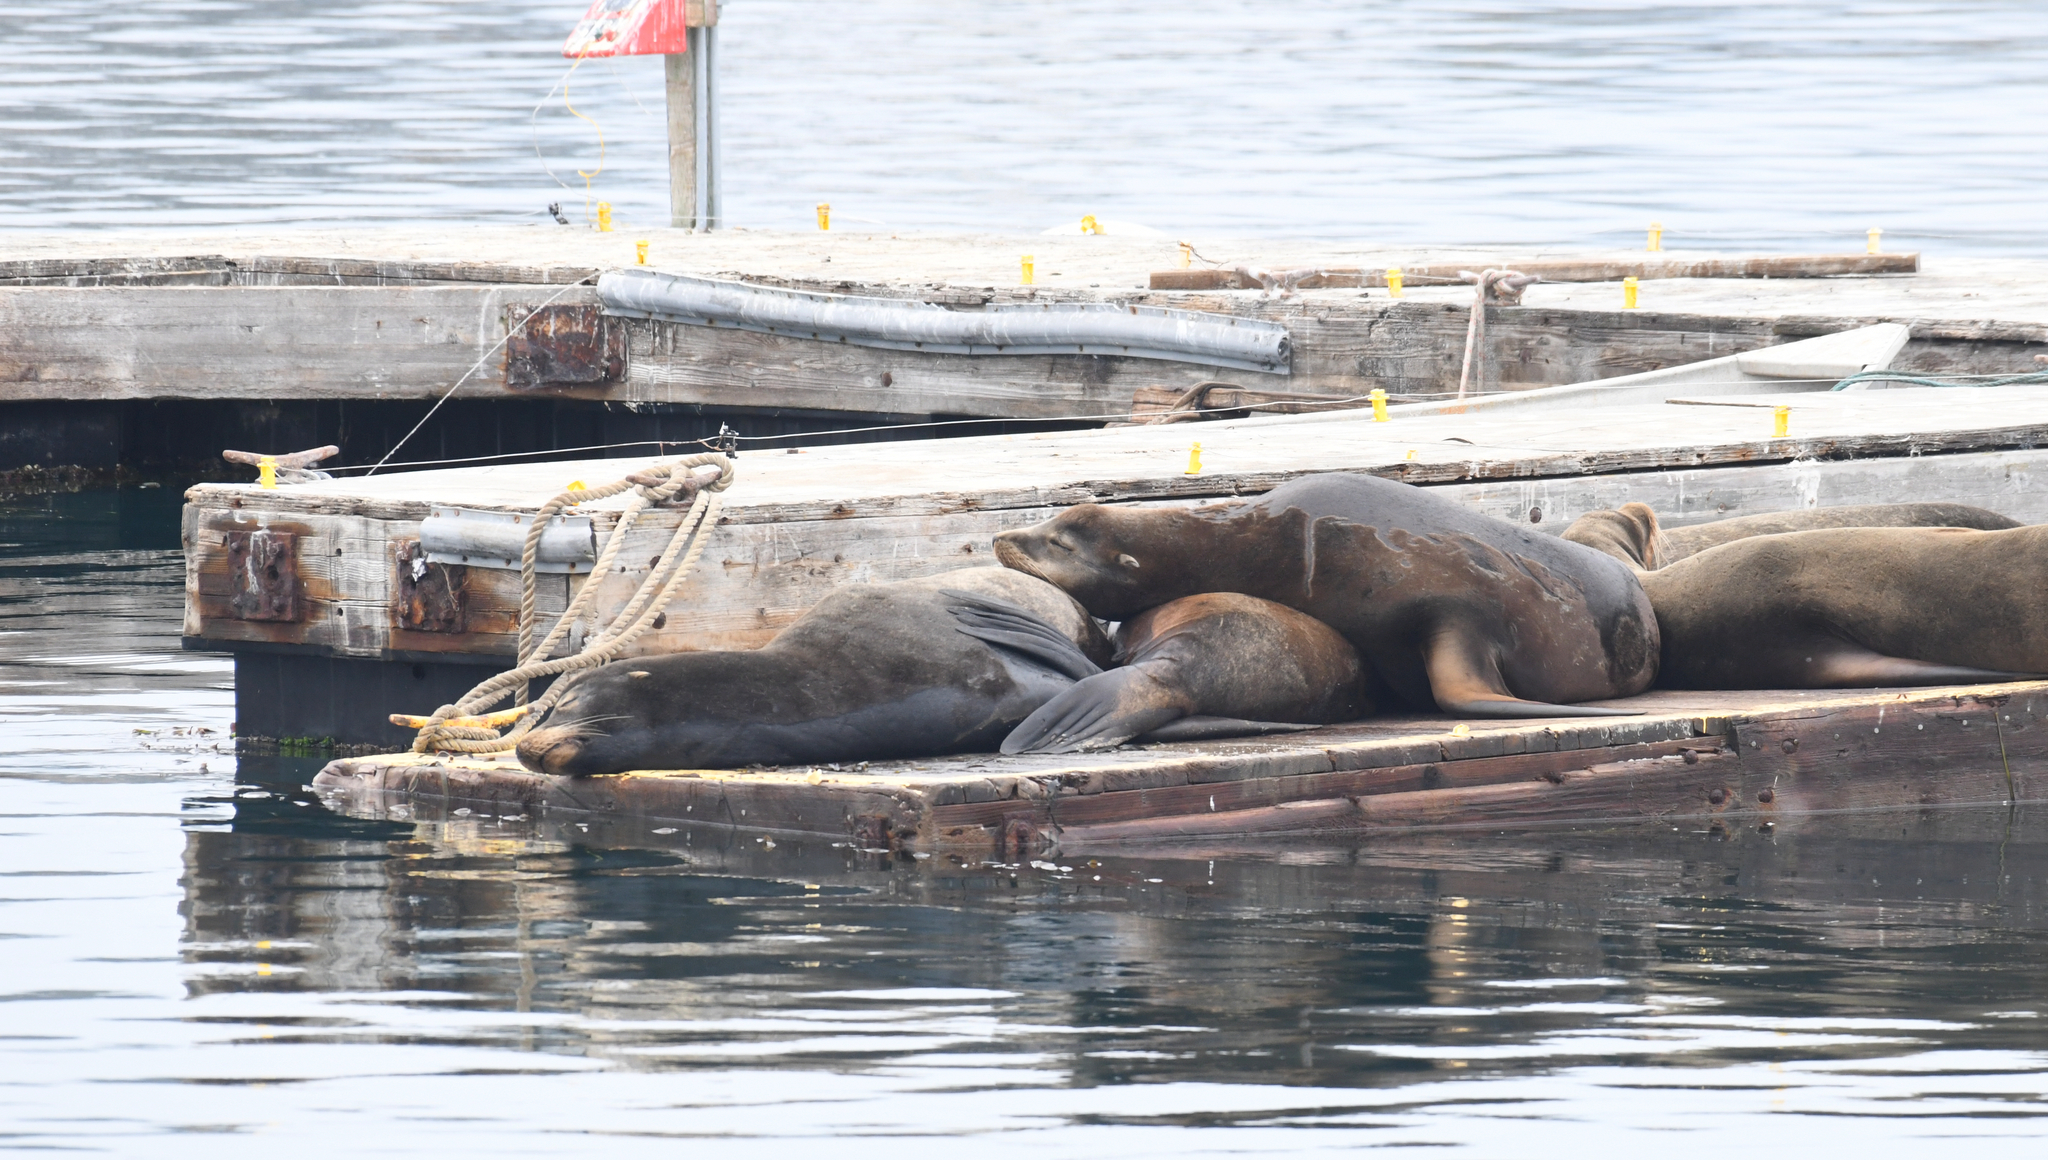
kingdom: Animalia
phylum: Chordata
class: Mammalia
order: Carnivora
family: Otariidae
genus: Zalophus
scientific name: Zalophus californianus
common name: California sea lion
